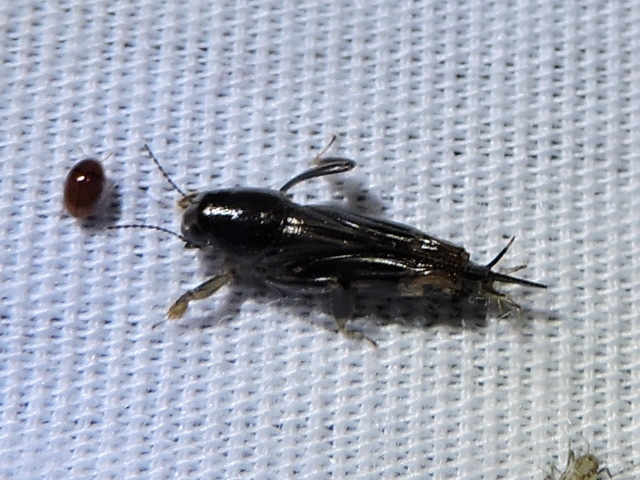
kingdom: Animalia
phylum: Arthropoda
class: Insecta
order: Orthoptera
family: Tridactylidae
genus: Neotridactylus
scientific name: Neotridactylus apicialis
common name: Larger pygmy locust
